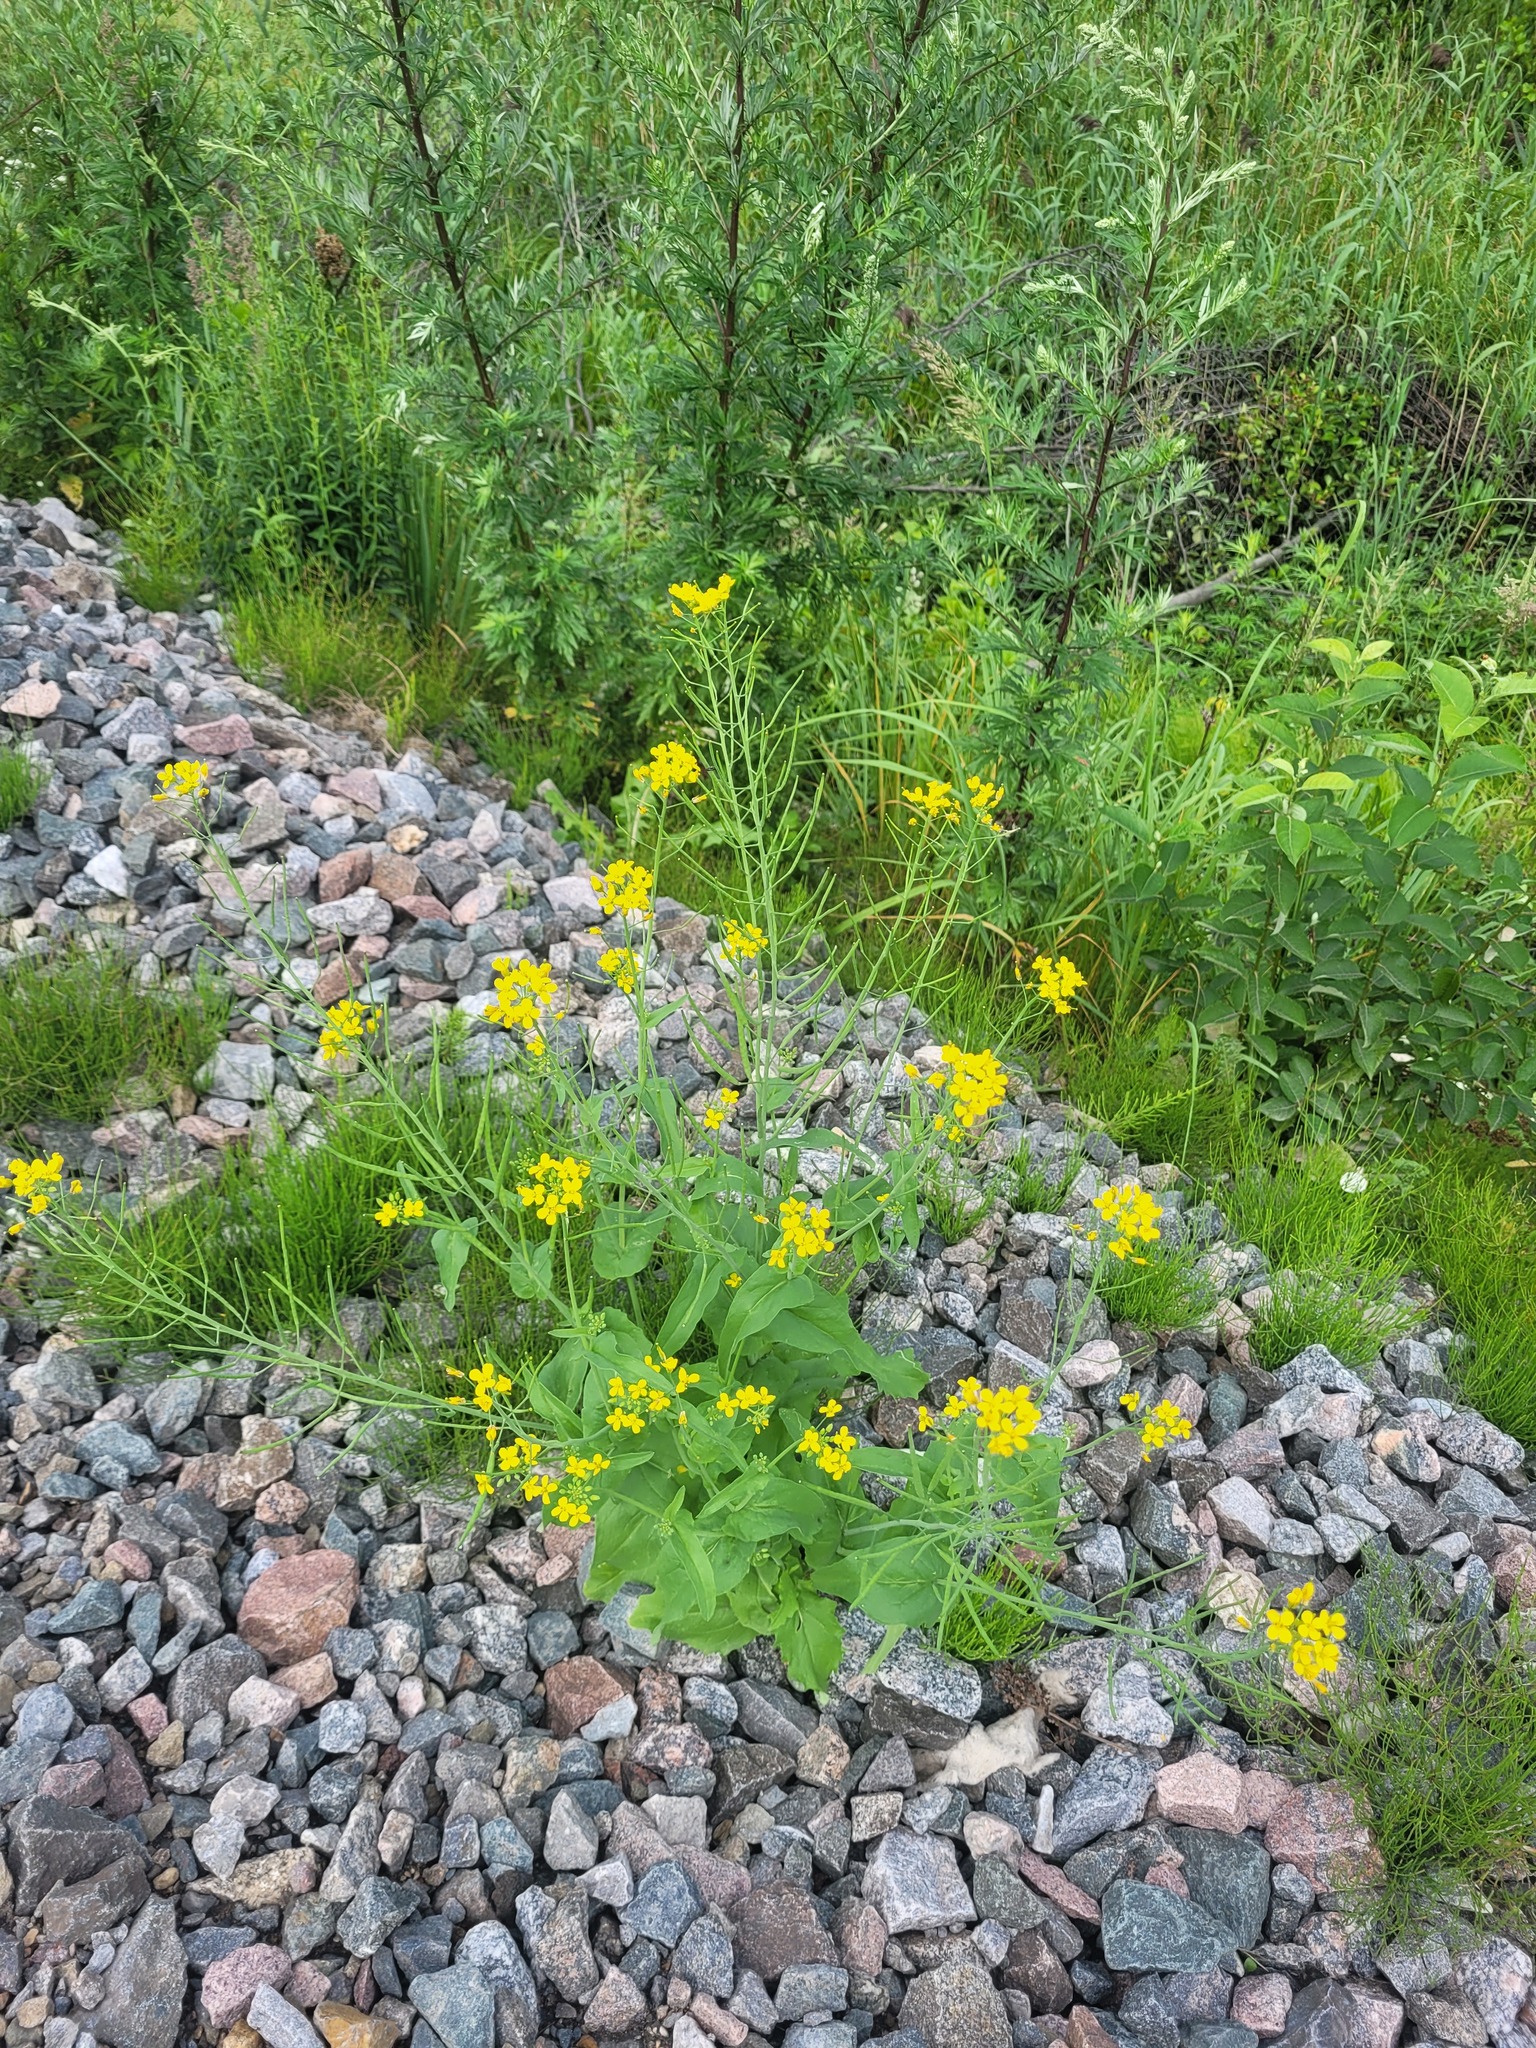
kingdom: Plantae
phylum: Tracheophyta
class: Magnoliopsida
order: Brassicales
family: Brassicaceae
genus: Brassica
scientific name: Brassica rapa
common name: Field mustard
